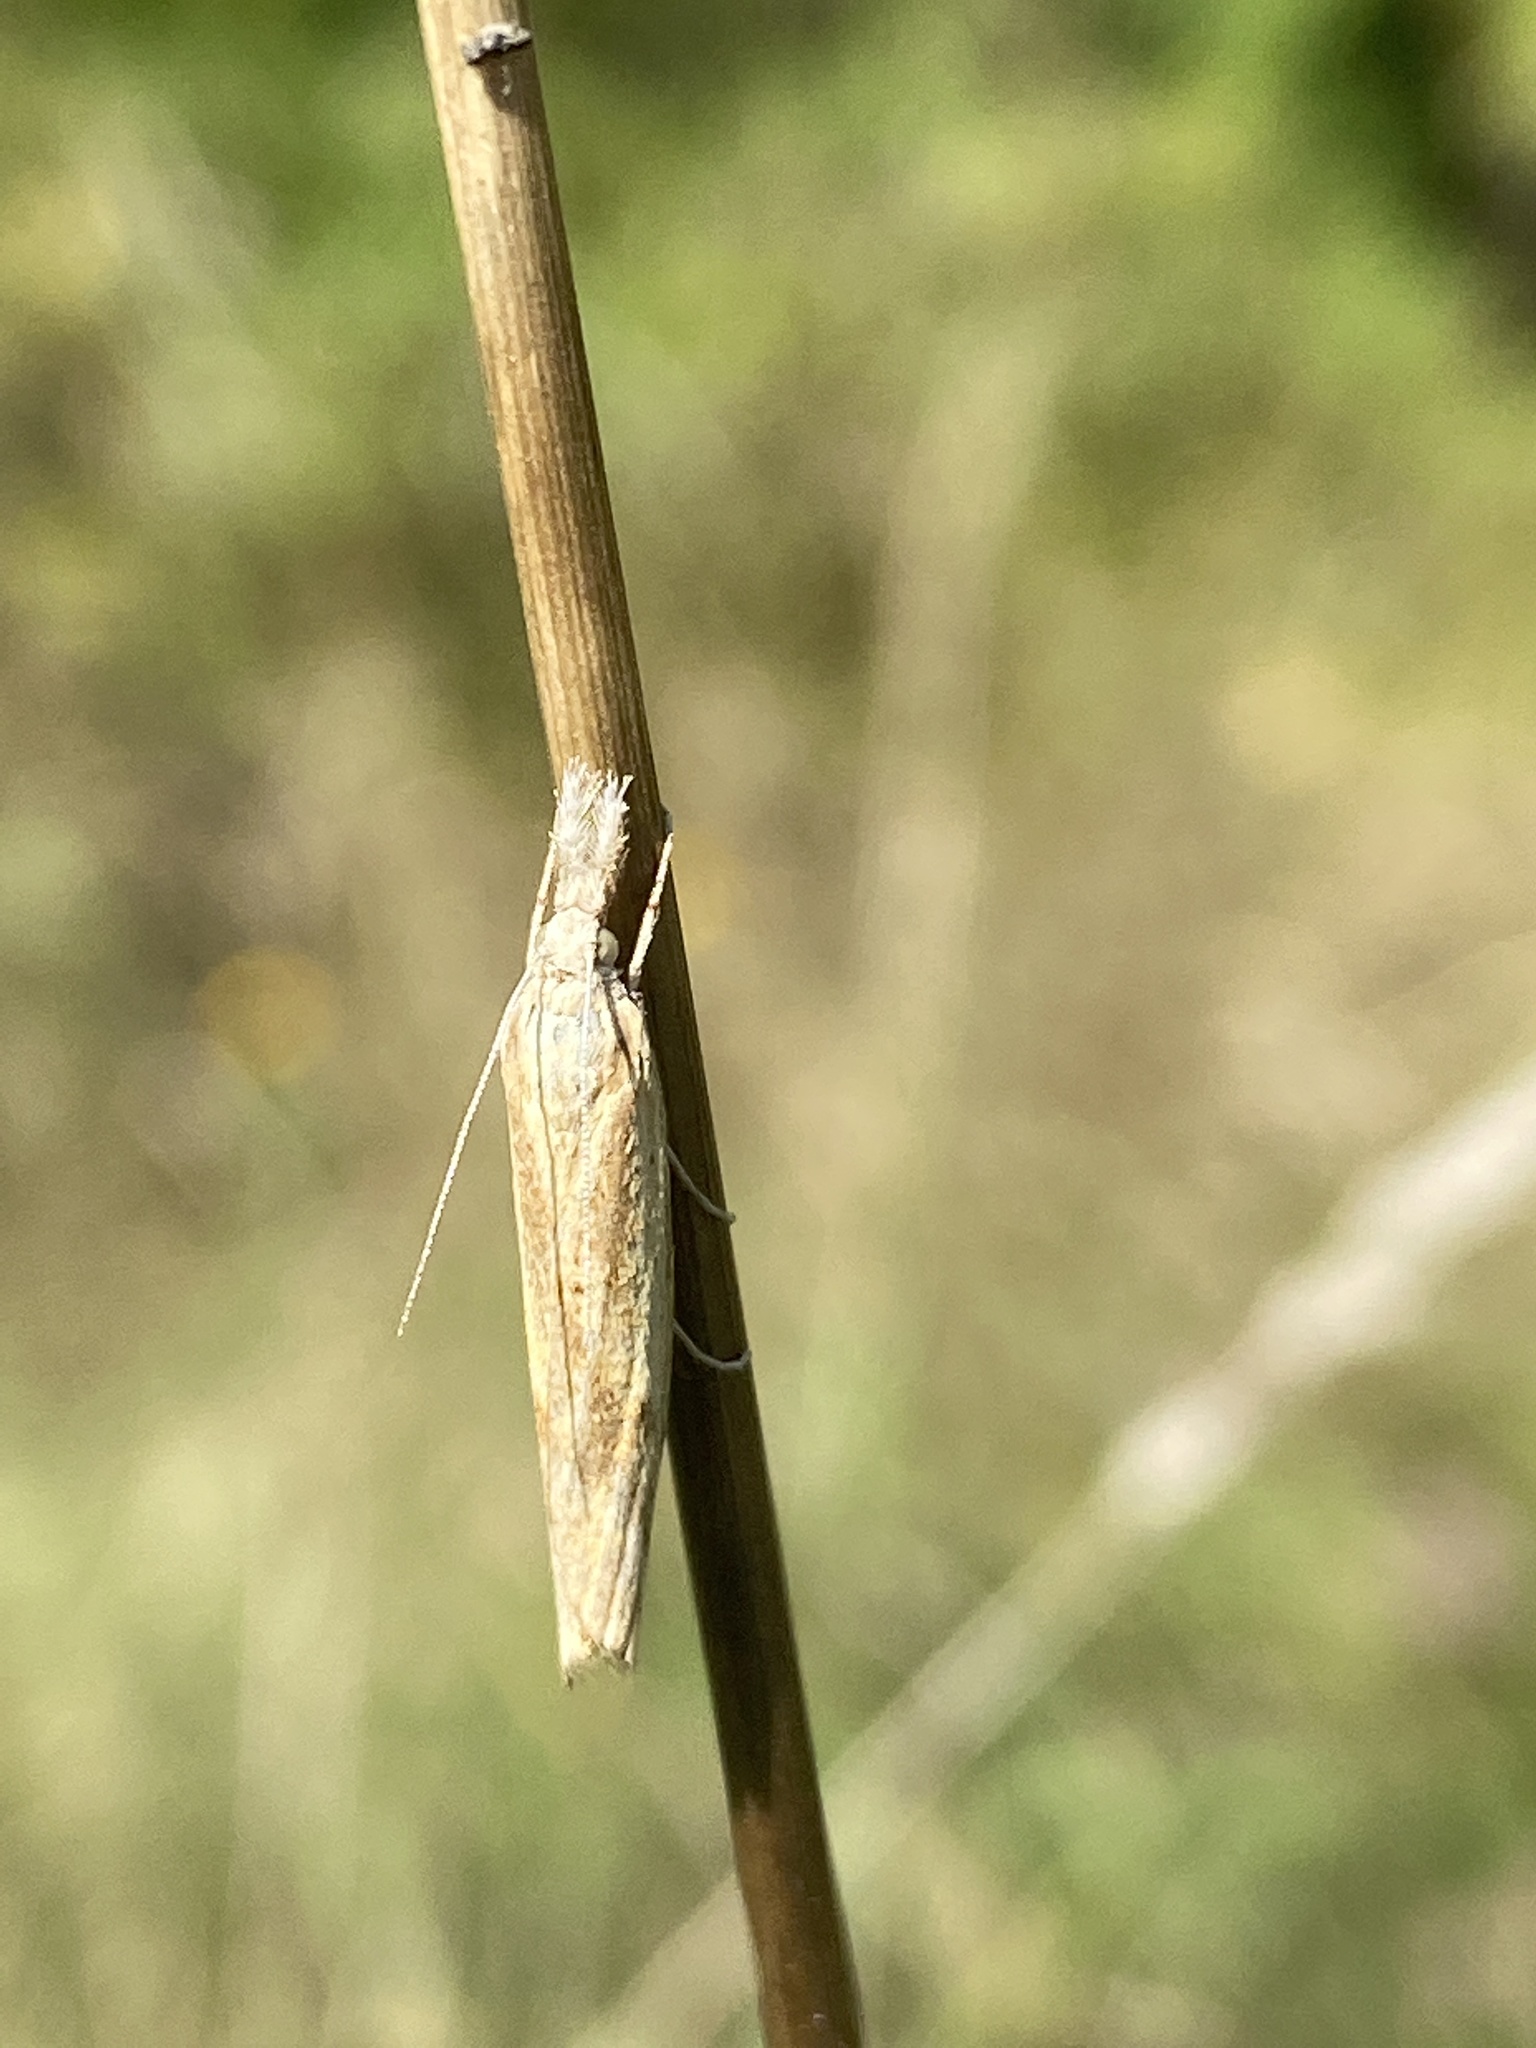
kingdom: Animalia
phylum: Arthropoda
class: Insecta
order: Lepidoptera
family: Crambidae
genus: Agriphila
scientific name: Agriphila inquinatella
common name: Barred grass-veneer
